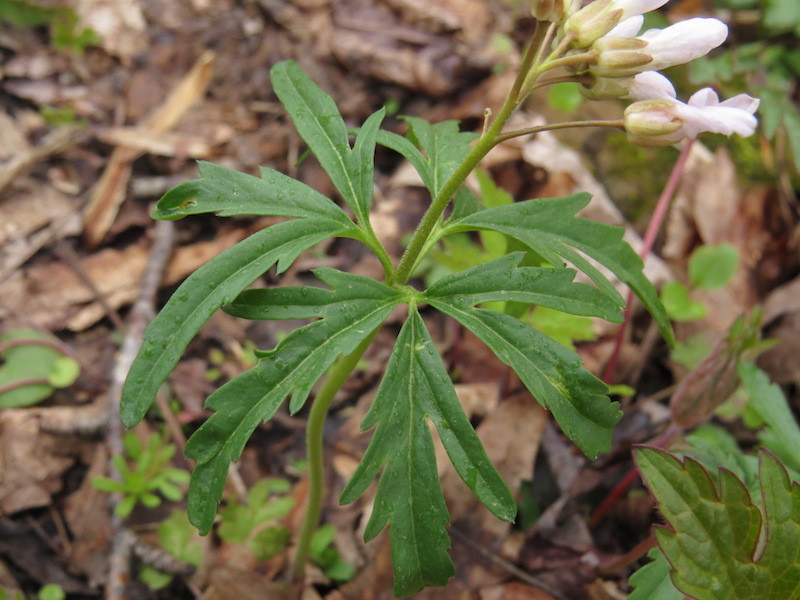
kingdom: Plantae
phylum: Tracheophyta
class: Magnoliopsida
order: Brassicales
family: Brassicaceae
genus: Cardamine
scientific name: Cardamine concatenata
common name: Cut-leaf toothcup
